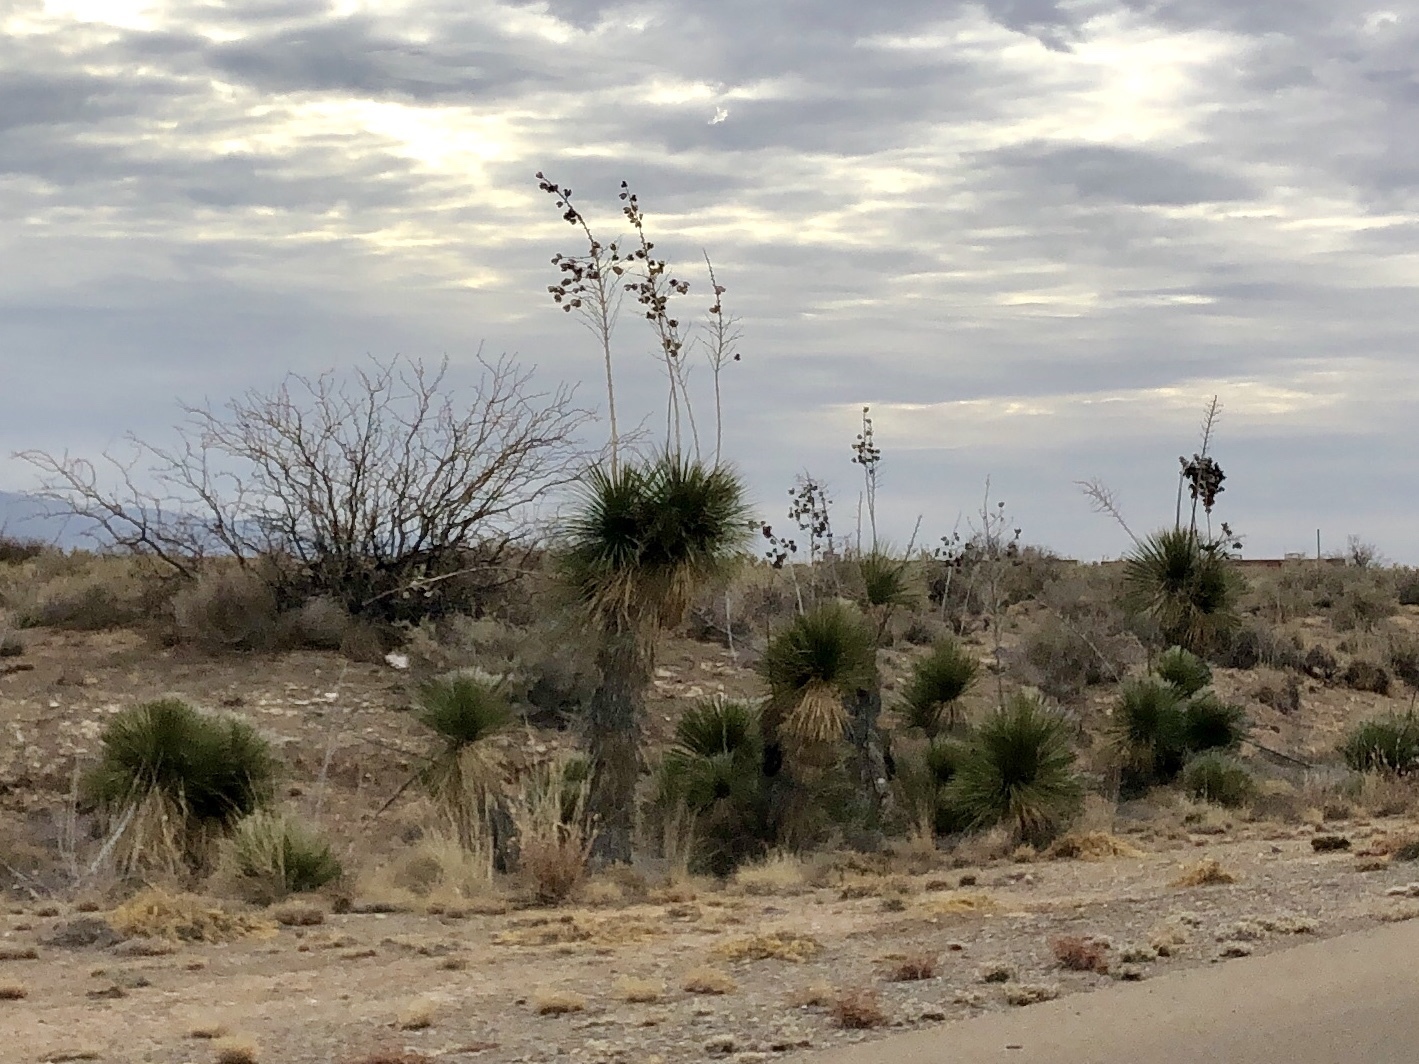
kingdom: Plantae
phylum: Tracheophyta
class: Liliopsida
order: Asparagales
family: Asparagaceae
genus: Yucca
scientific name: Yucca elata
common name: Palmella
